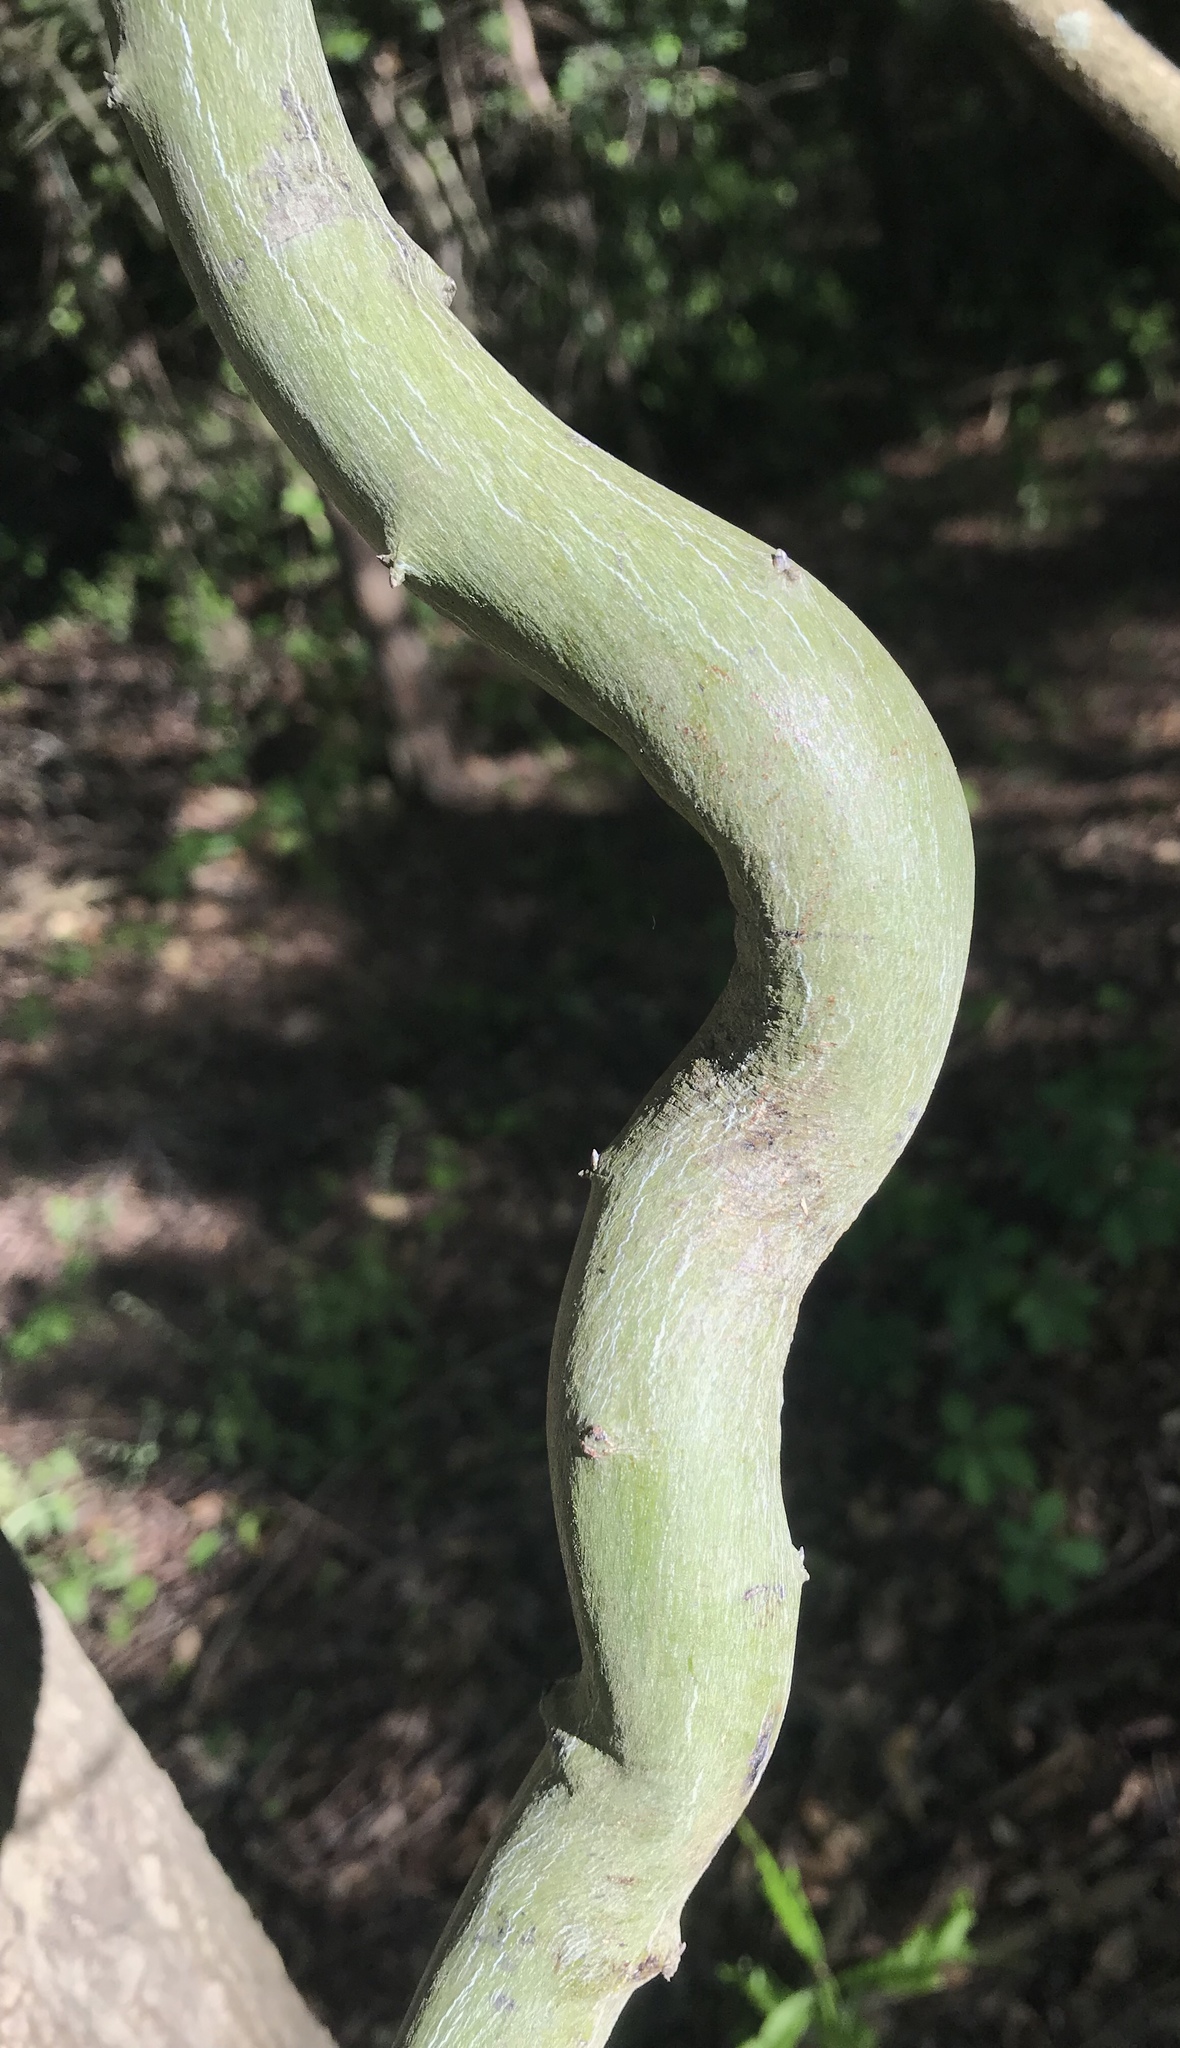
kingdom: Plantae
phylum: Tracheophyta
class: Magnoliopsida
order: Rosales
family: Rhamnaceae
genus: Berchemia
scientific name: Berchemia scandens
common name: Supplejack
